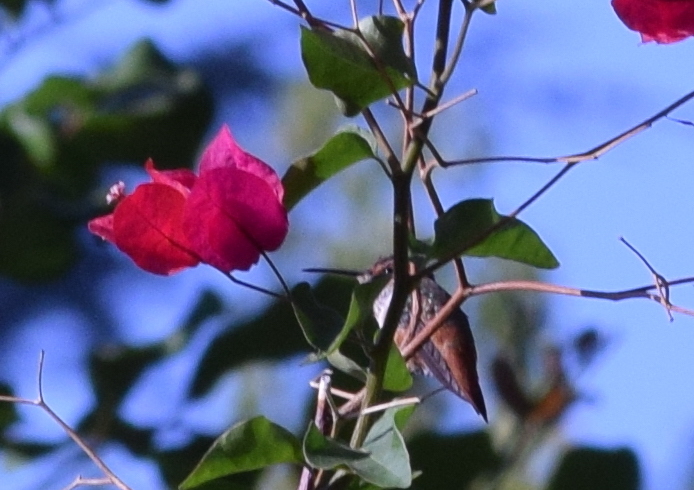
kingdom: Animalia
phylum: Chordata
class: Aves
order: Apodiformes
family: Trochilidae
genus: Selasphorus
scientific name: Selasphorus
